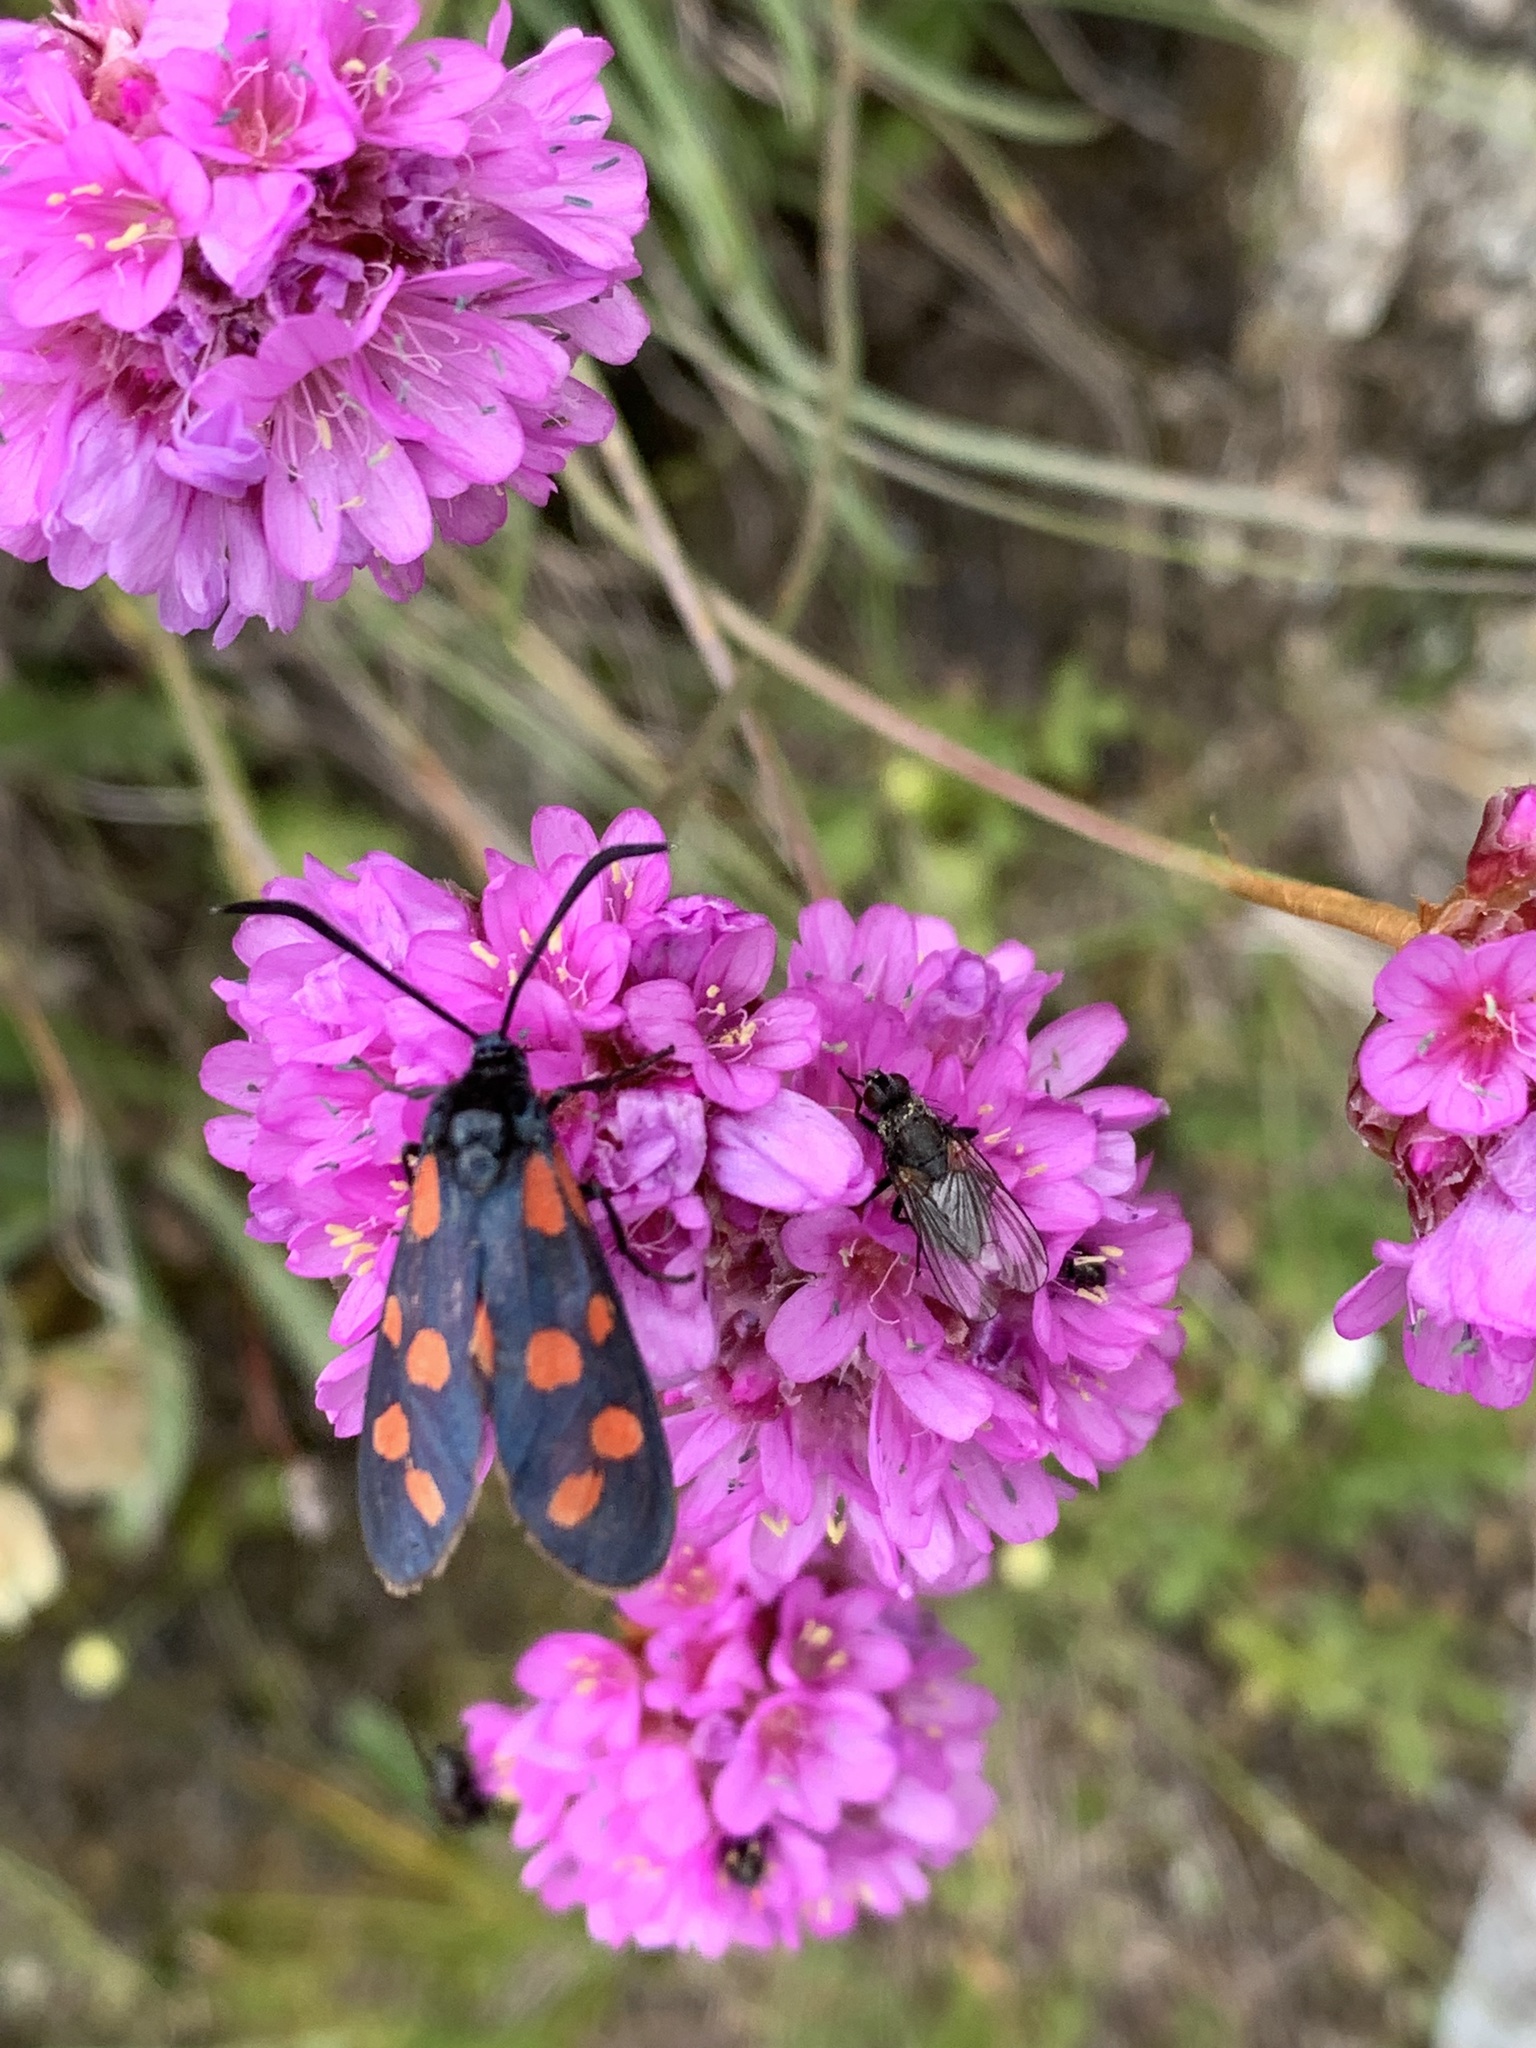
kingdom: Animalia
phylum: Arthropoda
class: Insecta
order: Lepidoptera
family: Zygaenidae
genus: Zygaena
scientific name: Zygaena transalpina
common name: Southern six spot burnet
